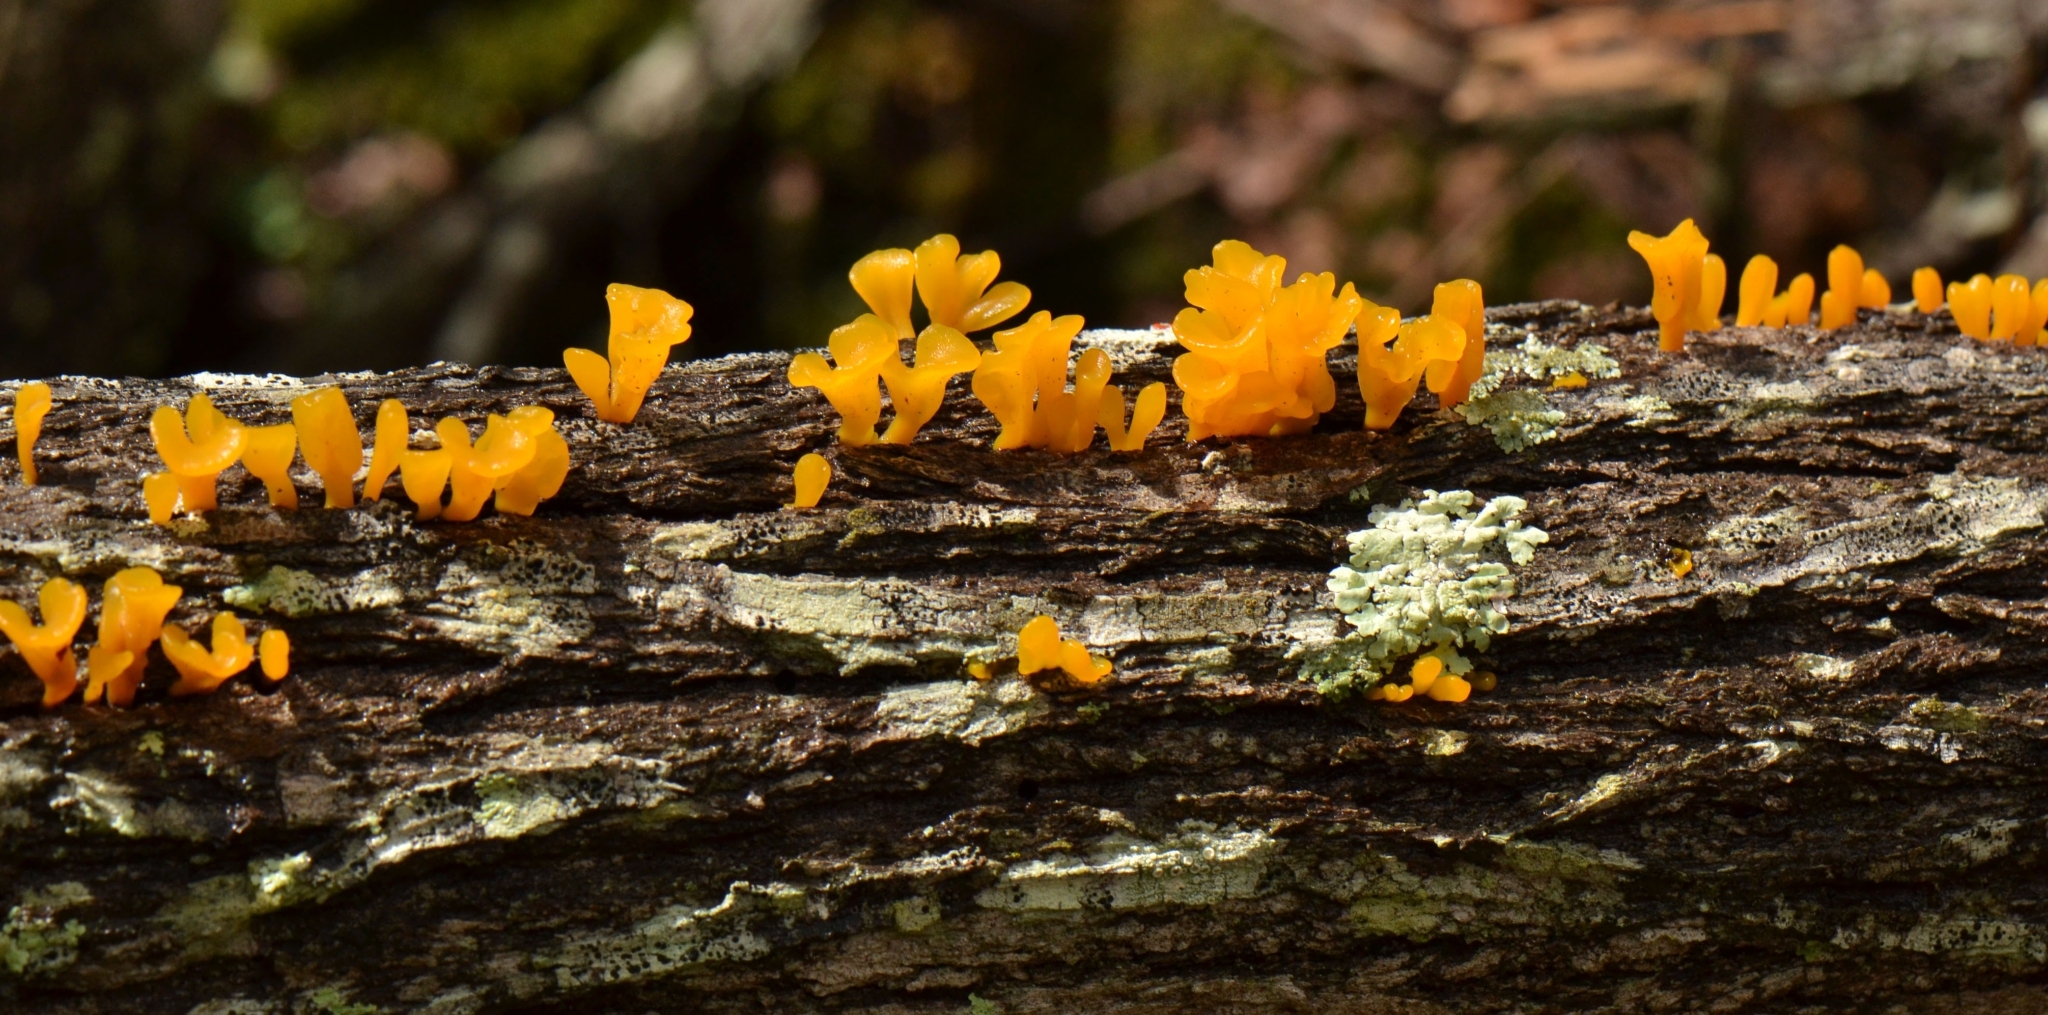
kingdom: Fungi
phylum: Basidiomycota
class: Dacrymycetes
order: Dacrymycetales
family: Dacrymycetaceae
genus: Dacrymyces
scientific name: Dacrymyces spathularius
